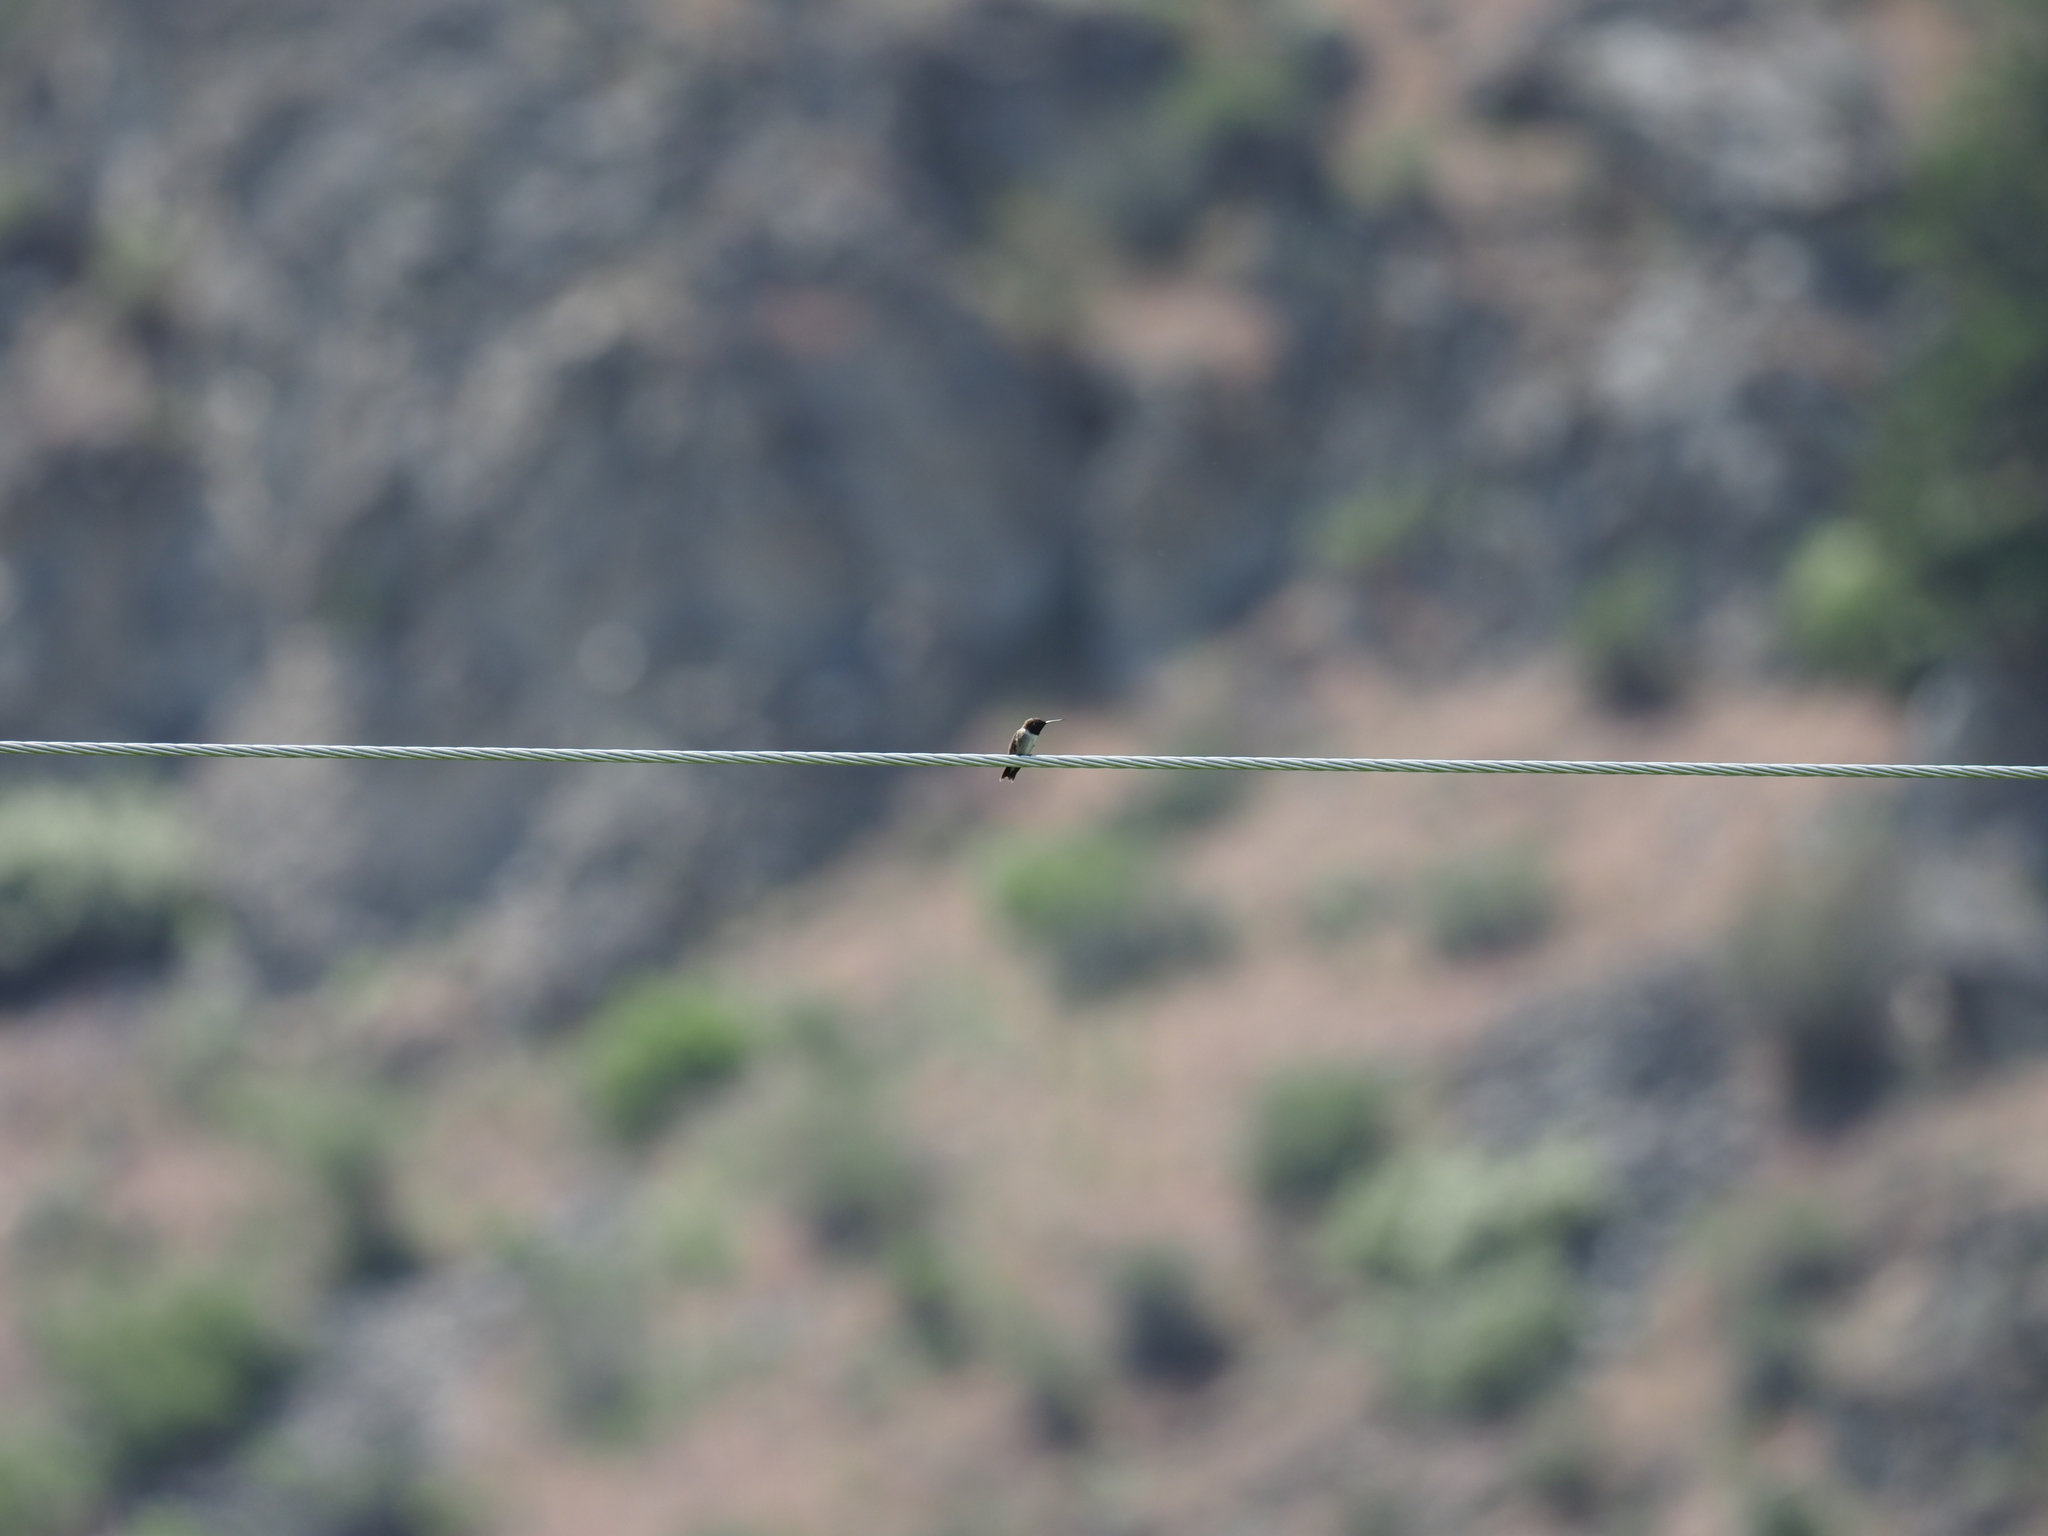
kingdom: Animalia
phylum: Chordata
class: Aves
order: Apodiformes
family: Trochilidae
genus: Archilochus
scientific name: Archilochus alexandri
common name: Black-chinned hummingbird
